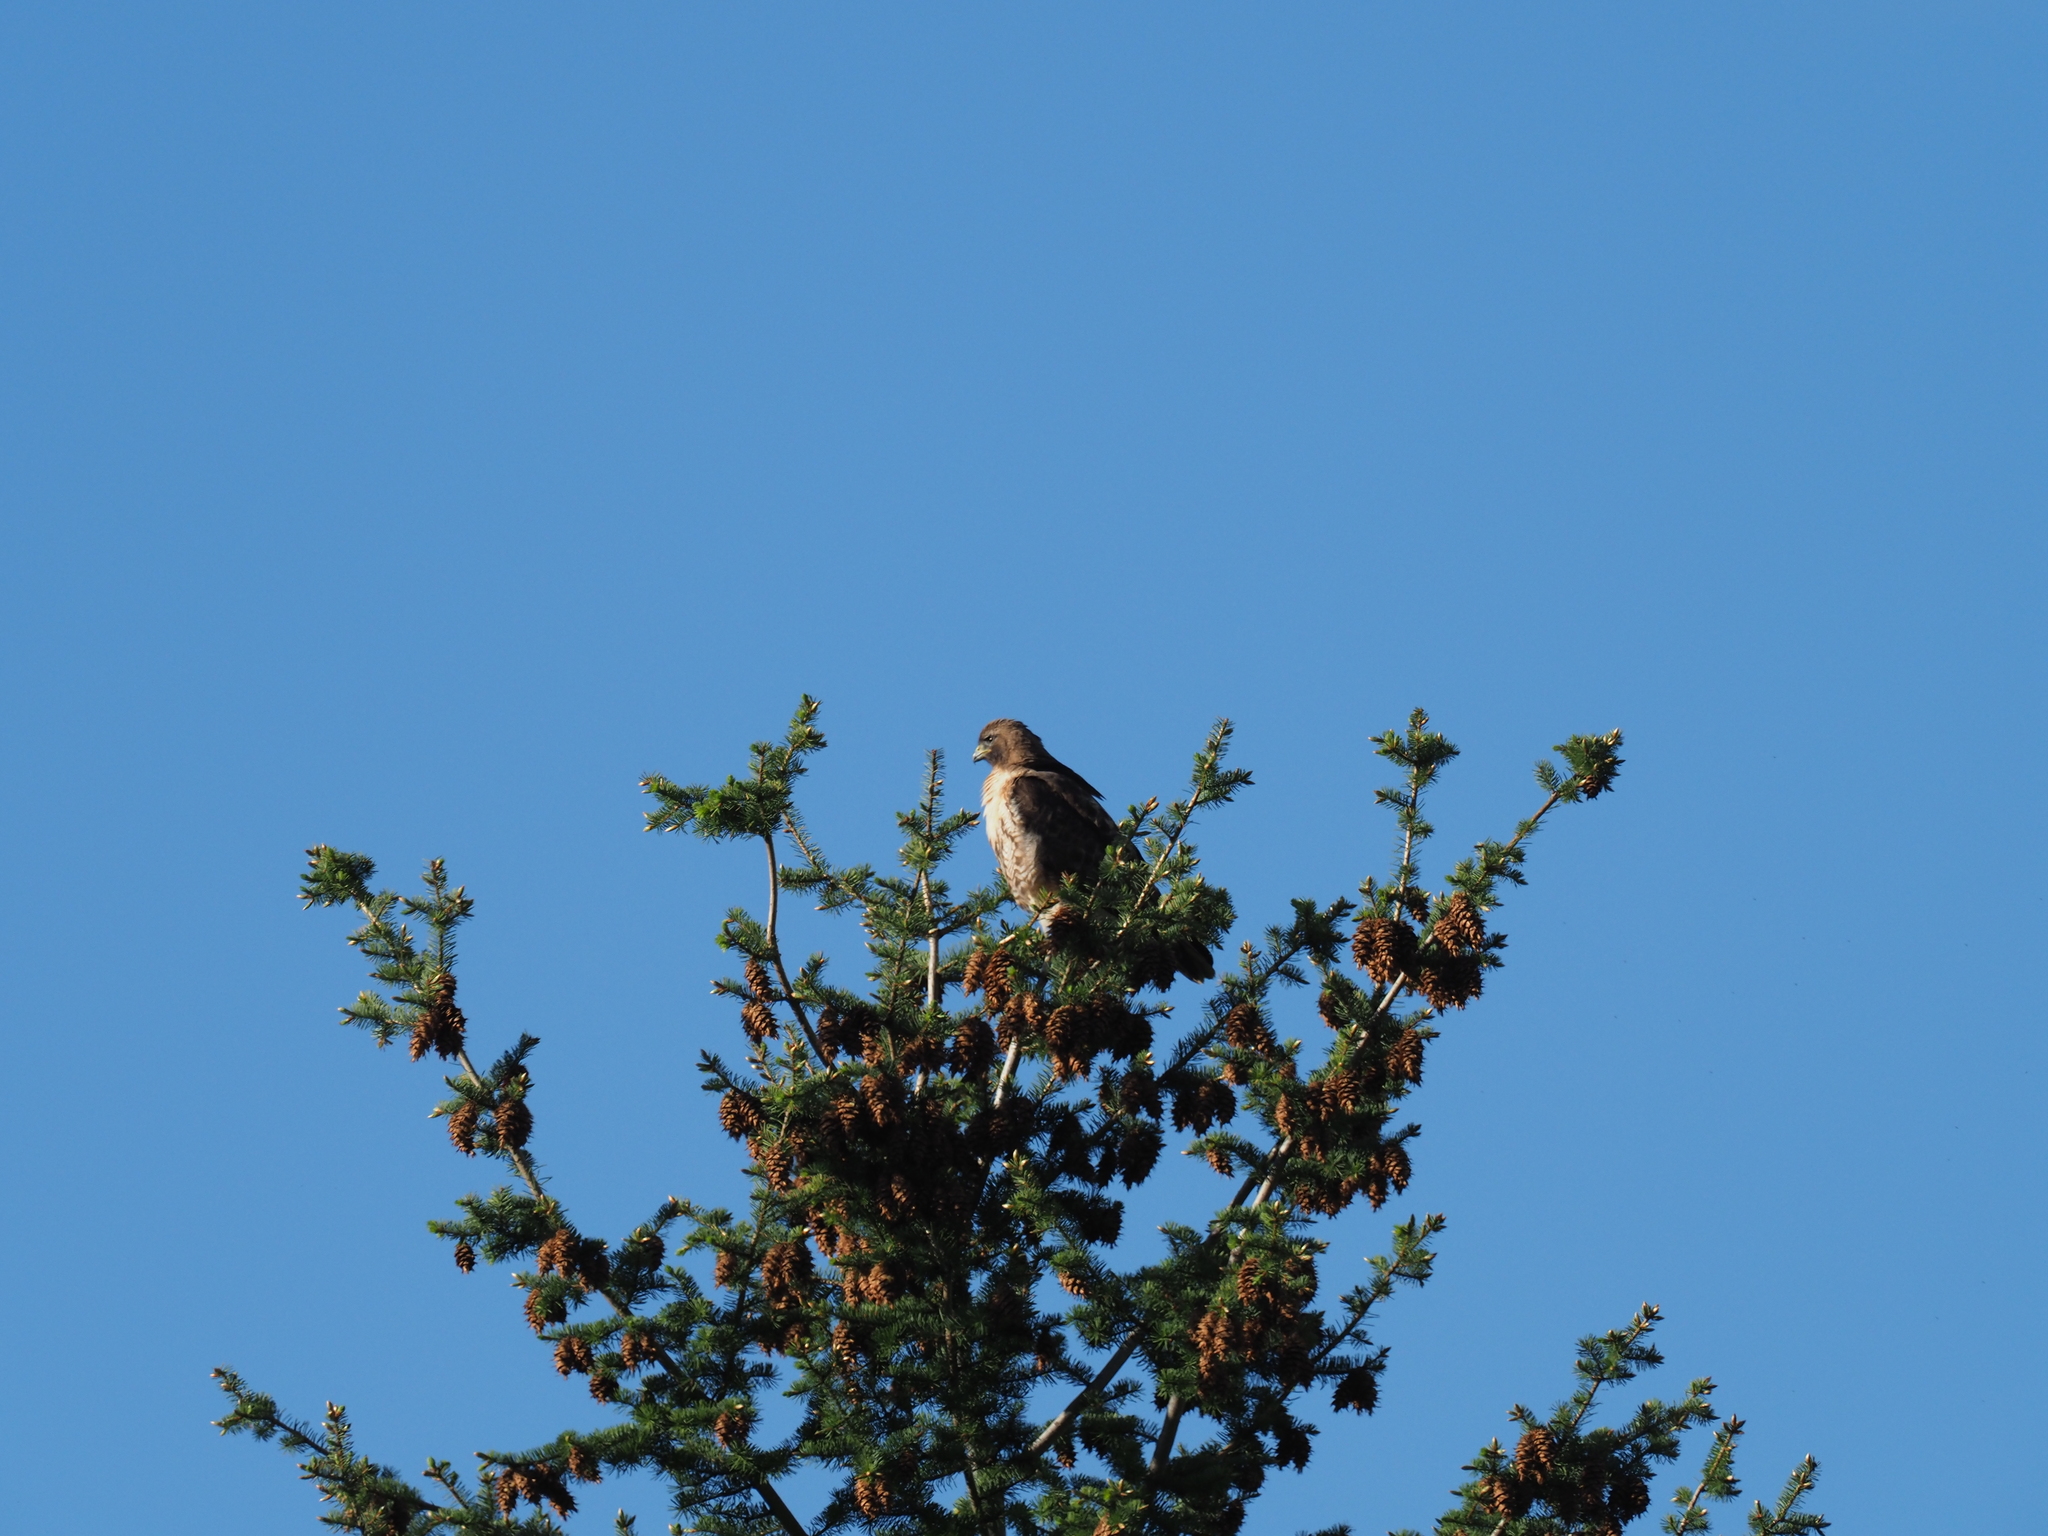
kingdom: Animalia
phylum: Chordata
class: Aves
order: Accipitriformes
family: Accipitridae
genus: Buteo
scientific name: Buteo jamaicensis
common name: Red-tailed hawk
